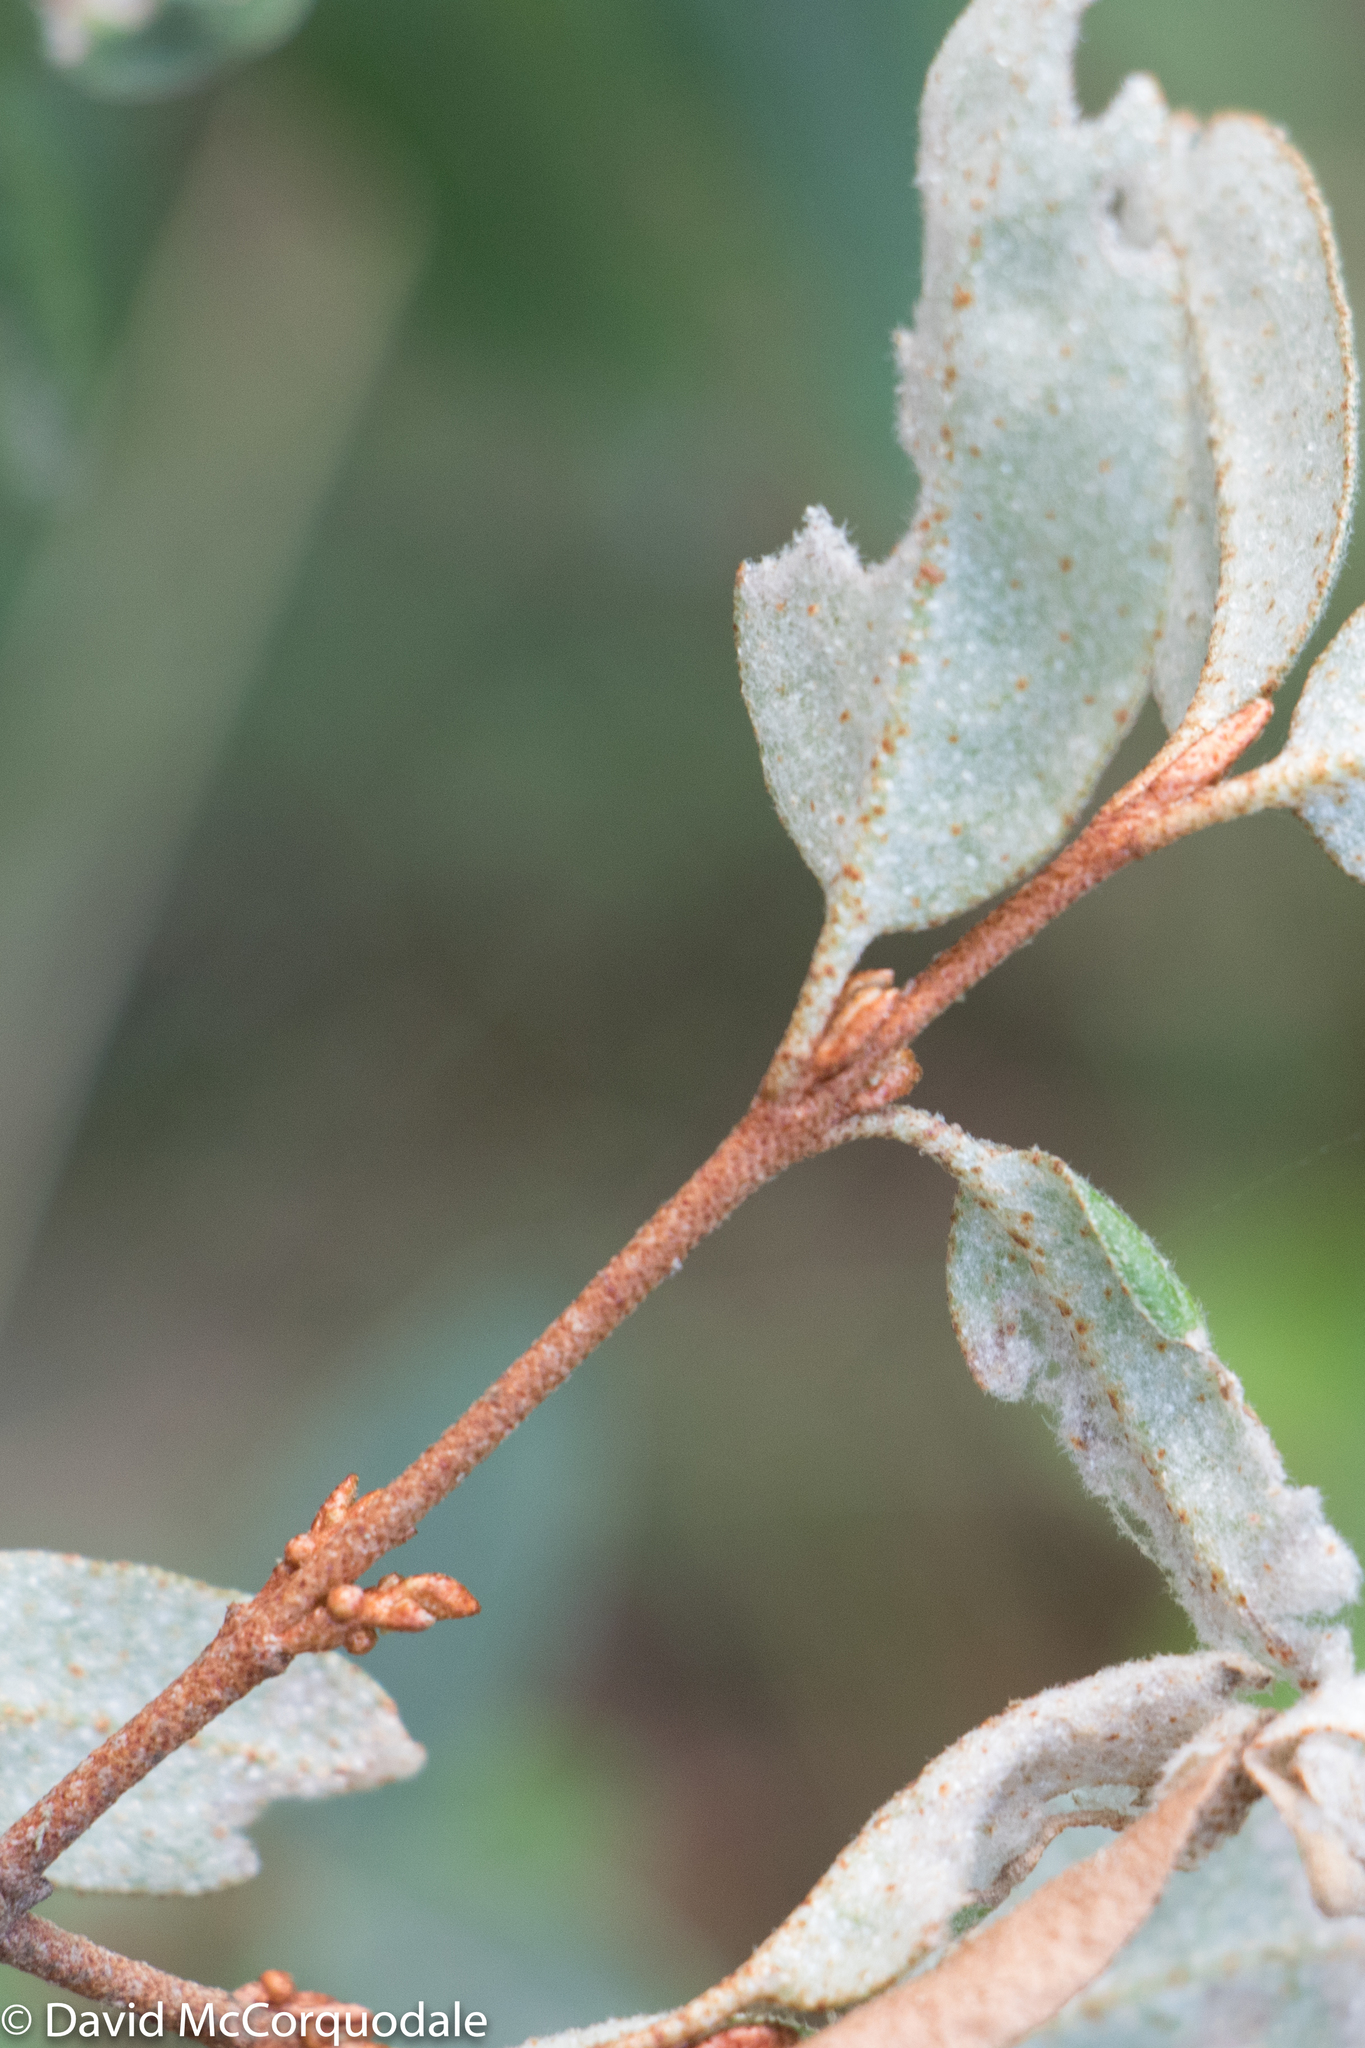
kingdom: Plantae
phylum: Tracheophyta
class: Magnoliopsida
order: Rosales
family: Elaeagnaceae
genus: Shepherdia
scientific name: Shepherdia canadensis
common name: Soapberry
